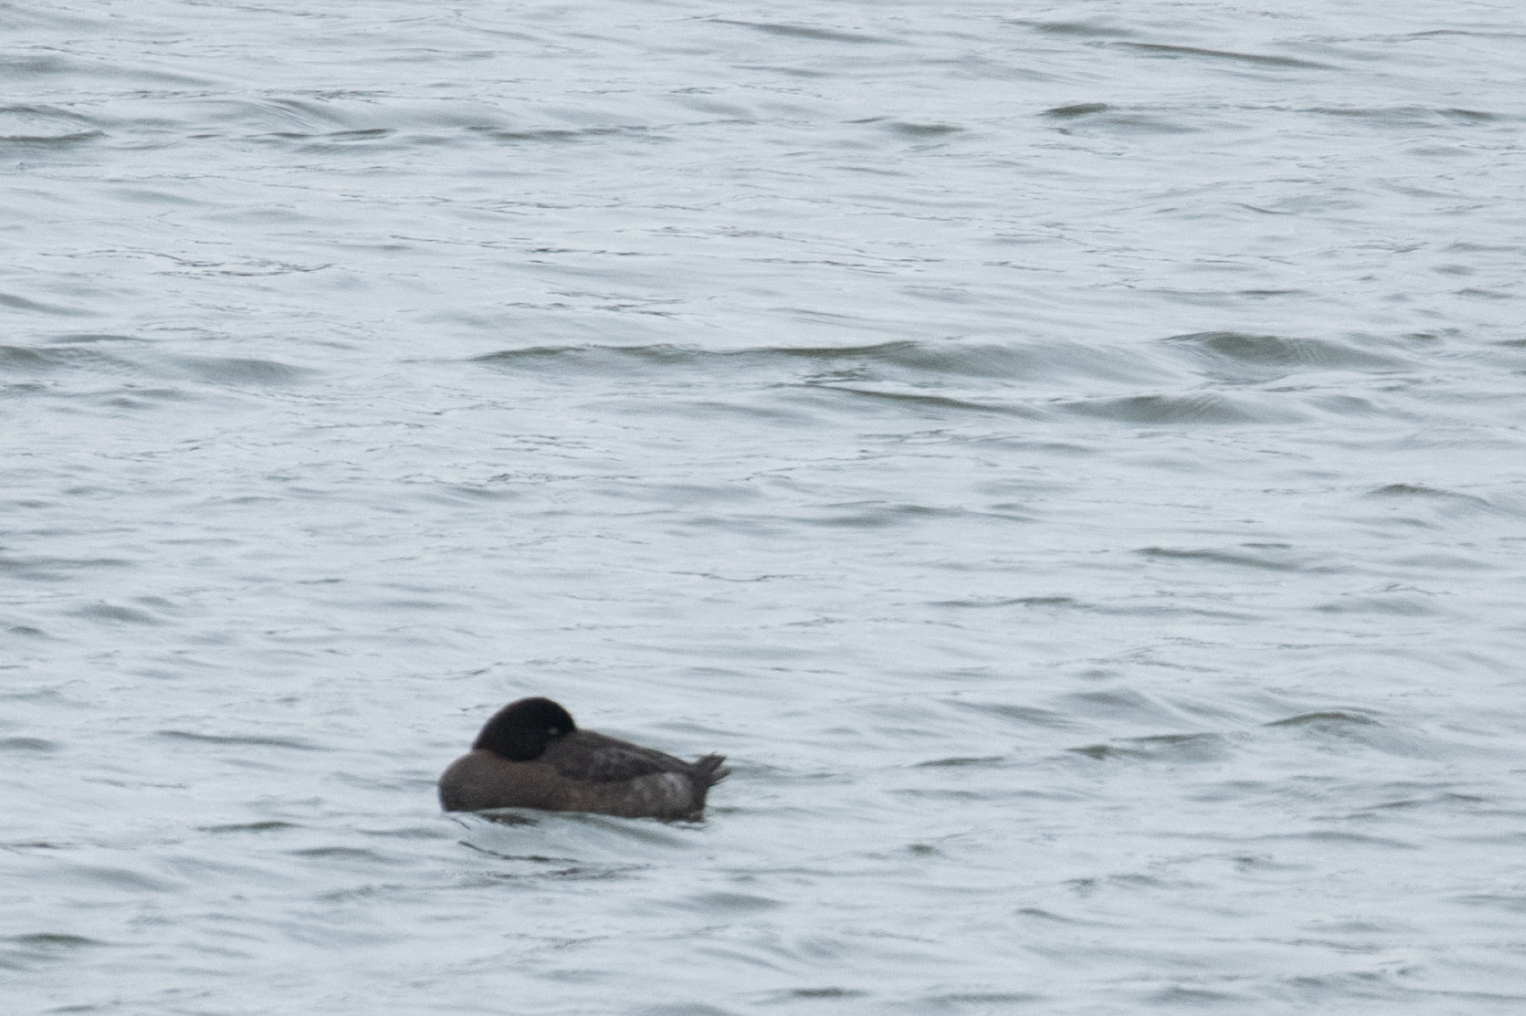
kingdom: Animalia
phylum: Chordata
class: Aves
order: Anseriformes
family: Anatidae
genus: Aythya
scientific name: Aythya fuligula
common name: Tufted duck
